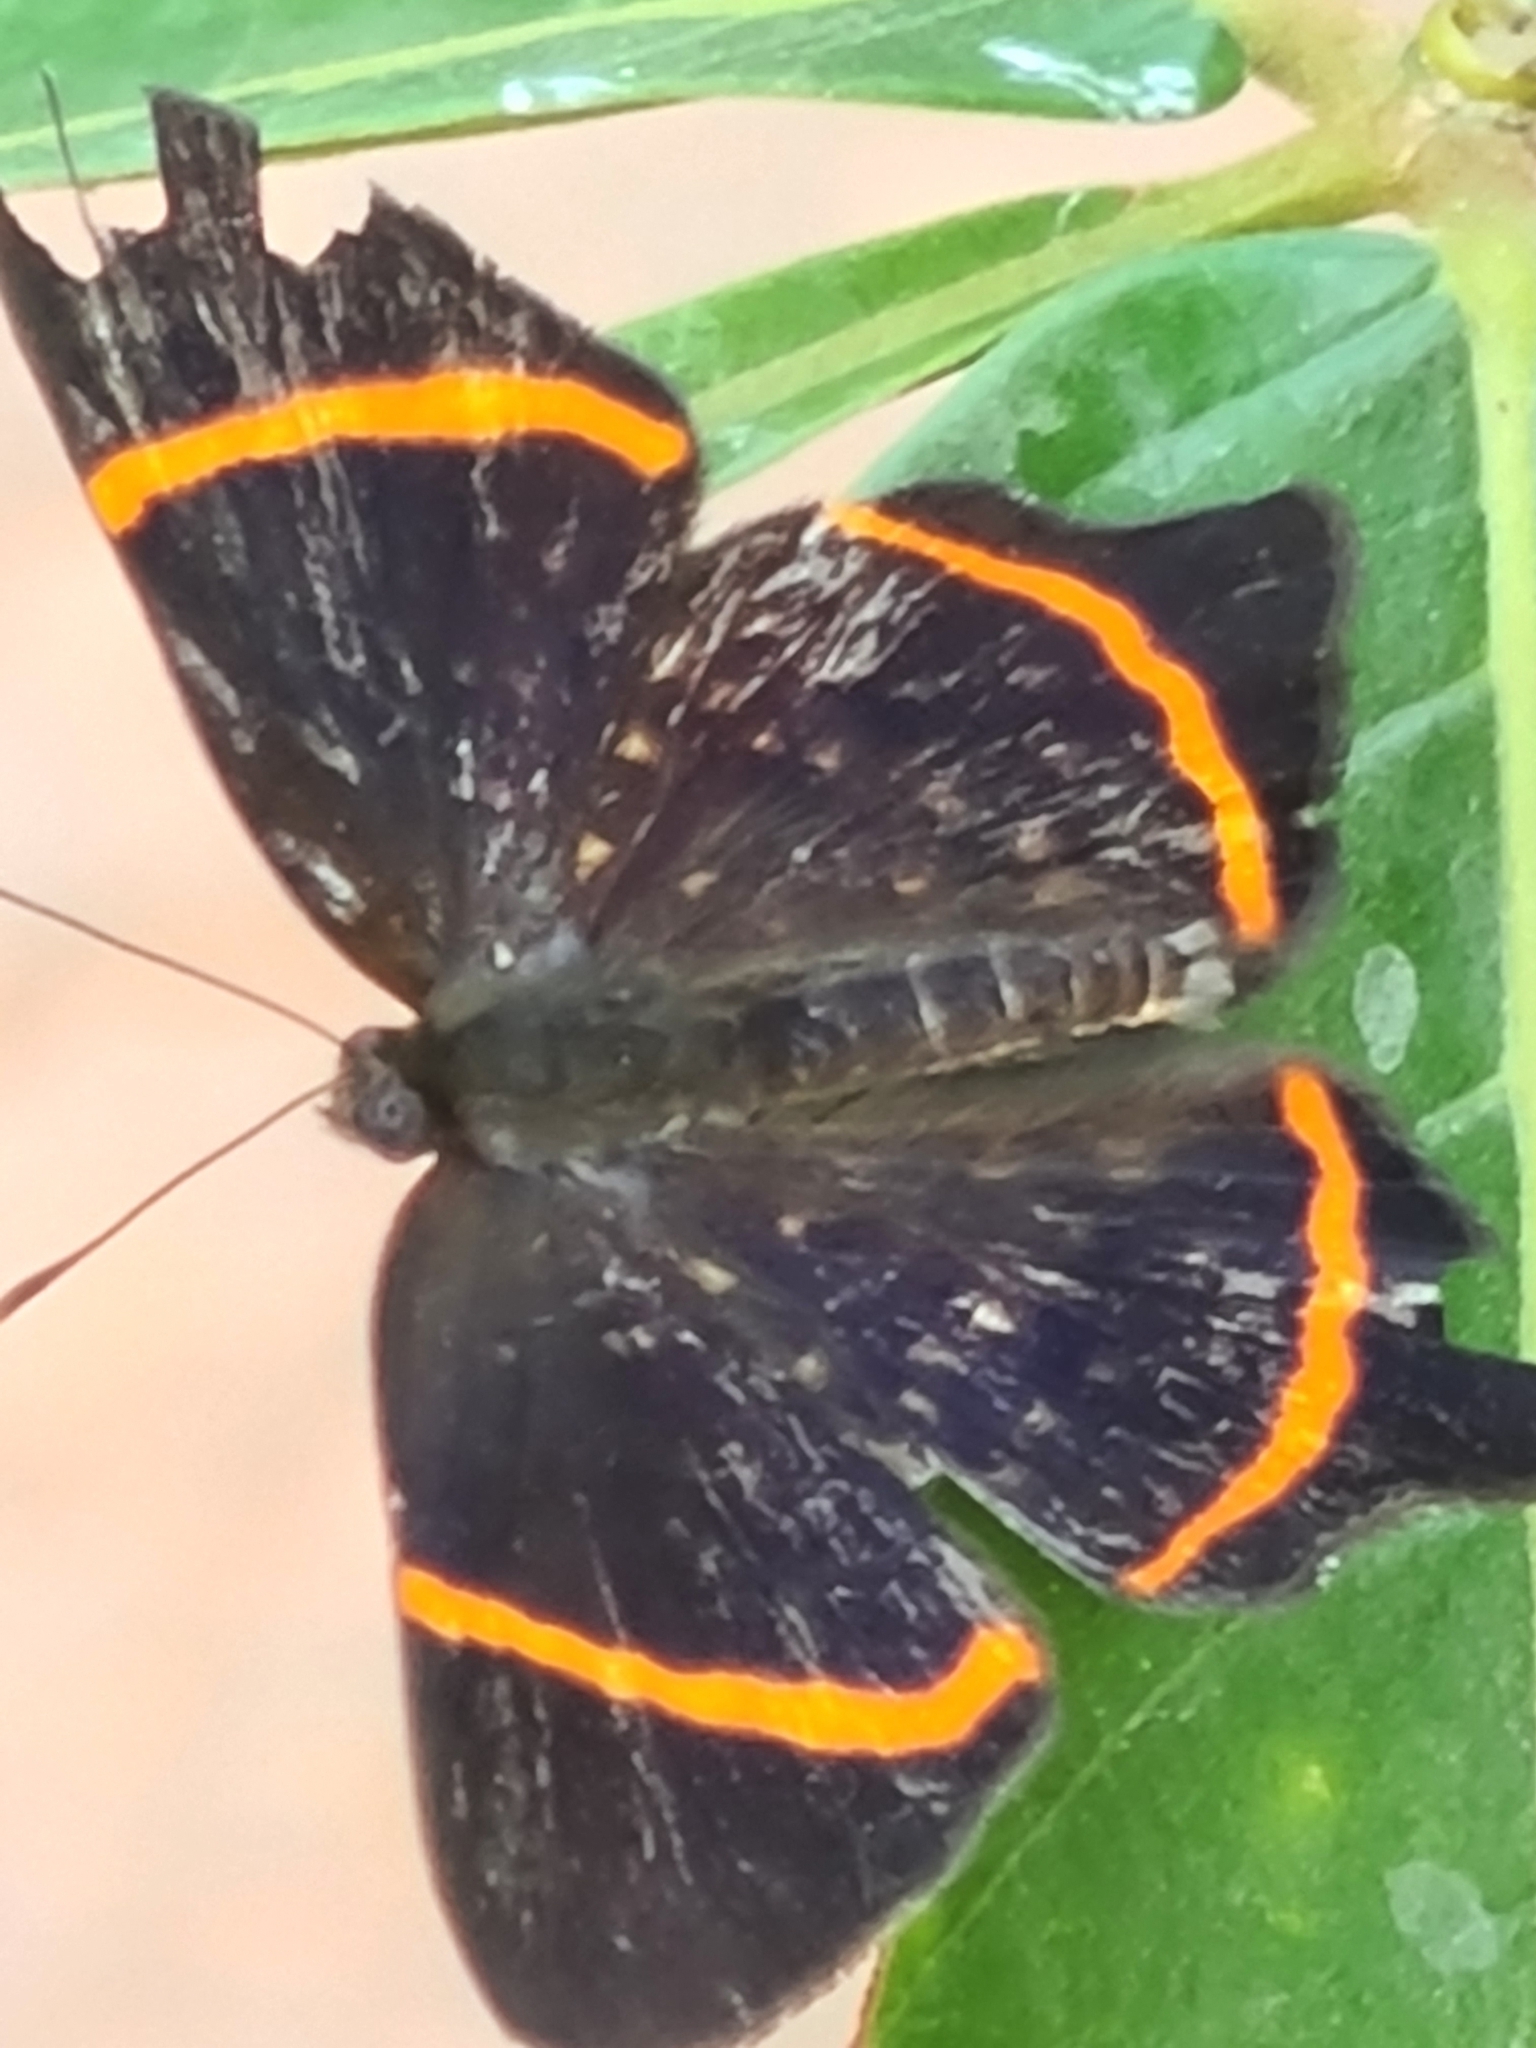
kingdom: Animalia
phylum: Arthropoda
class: Insecta
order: Lepidoptera
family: Riodinidae
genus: Riodina
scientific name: Riodina lysippus
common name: Lysippus metalmark
